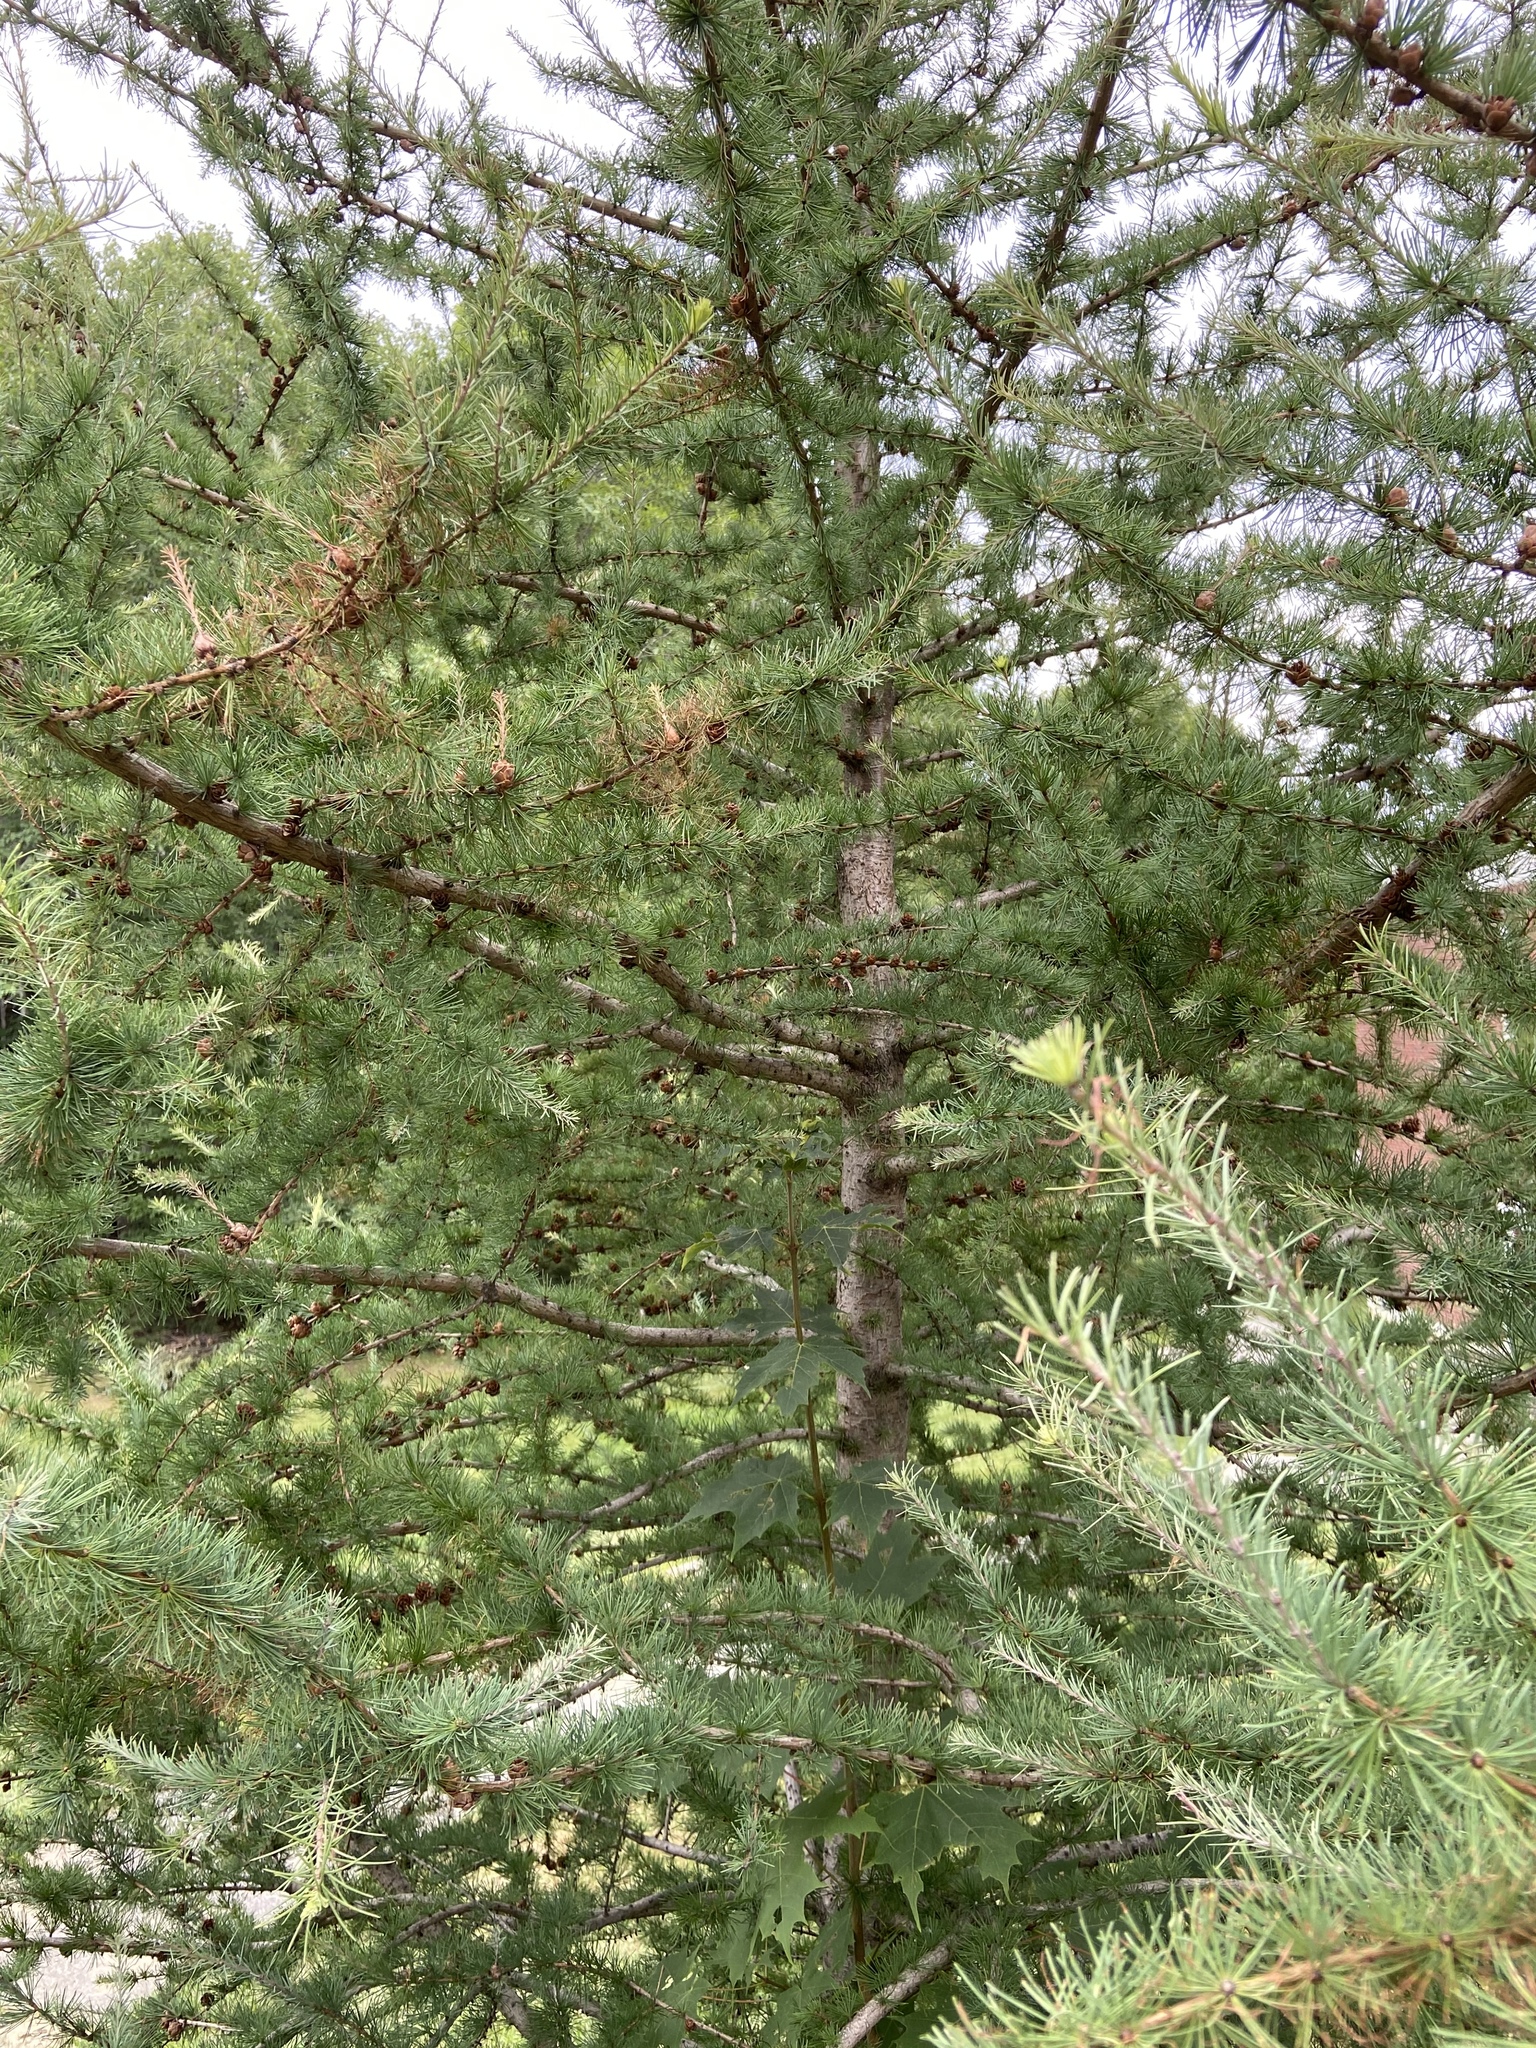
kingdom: Plantae
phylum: Tracheophyta
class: Pinopsida
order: Pinales
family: Pinaceae
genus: Larix
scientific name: Larix laricina
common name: American larch
